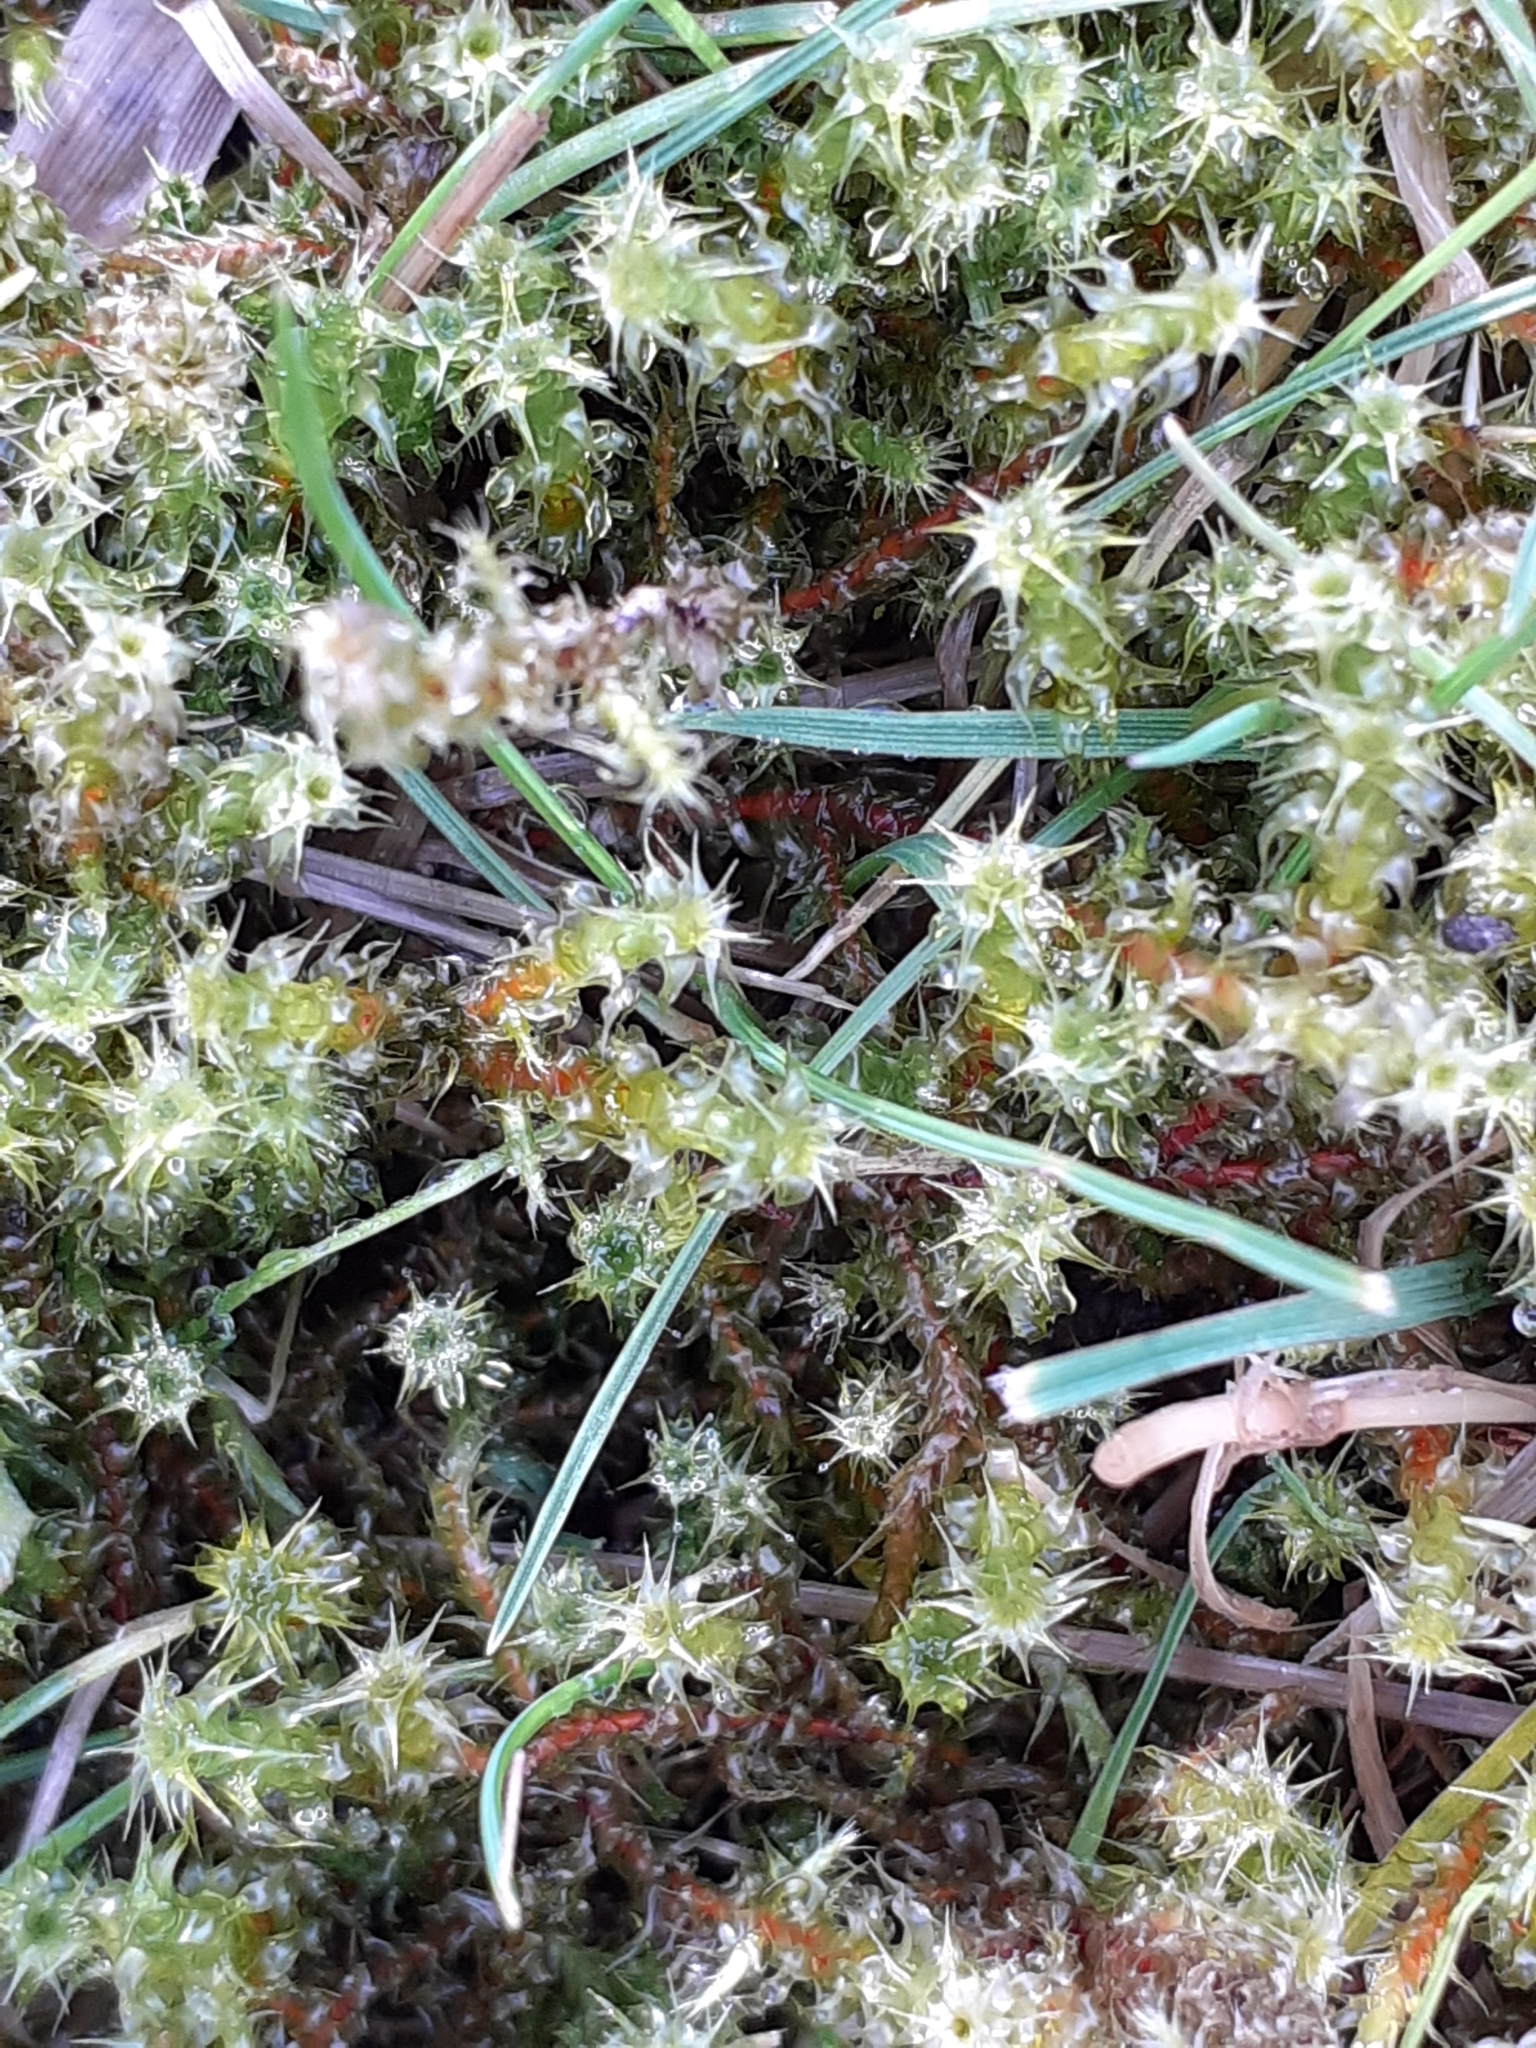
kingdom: Plantae
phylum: Bryophyta
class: Bryopsida
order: Hypnales
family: Hylocomiaceae
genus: Rhytidiadelphus
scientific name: Rhytidiadelphus squarrosus
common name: Springy turf-moss
